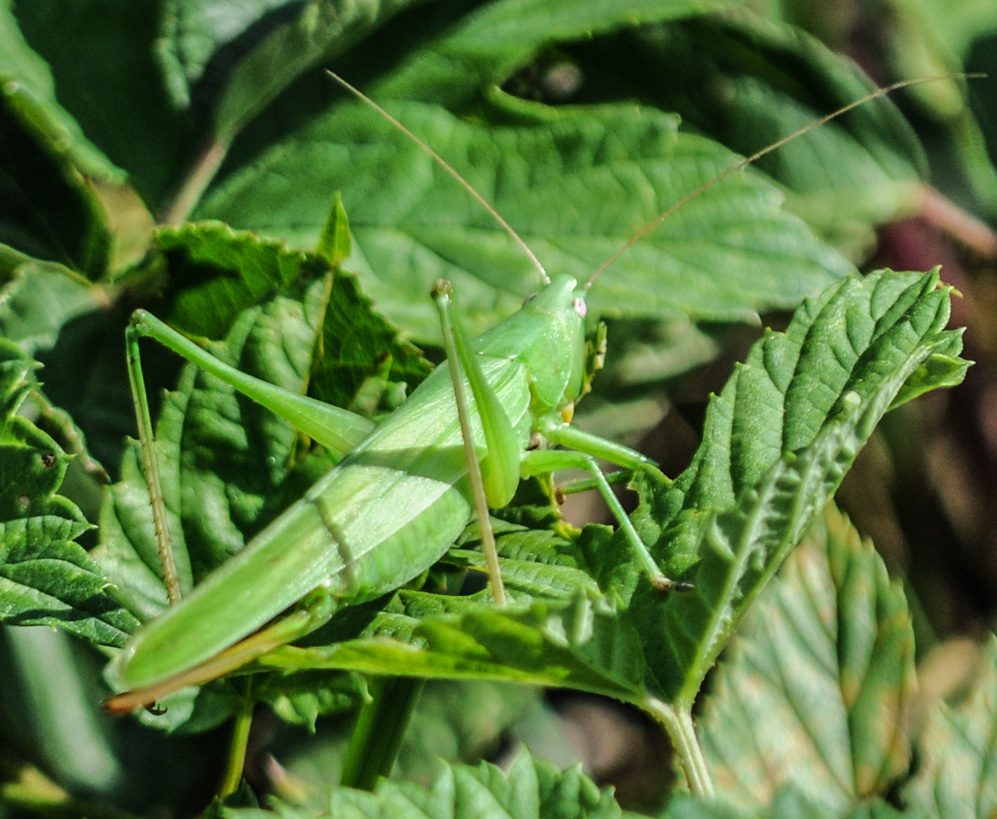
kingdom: Animalia
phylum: Arthropoda
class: Insecta
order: Orthoptera
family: Tettigoniidae
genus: Ruspolia
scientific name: Ruspolia nitidula
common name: Large conehead
